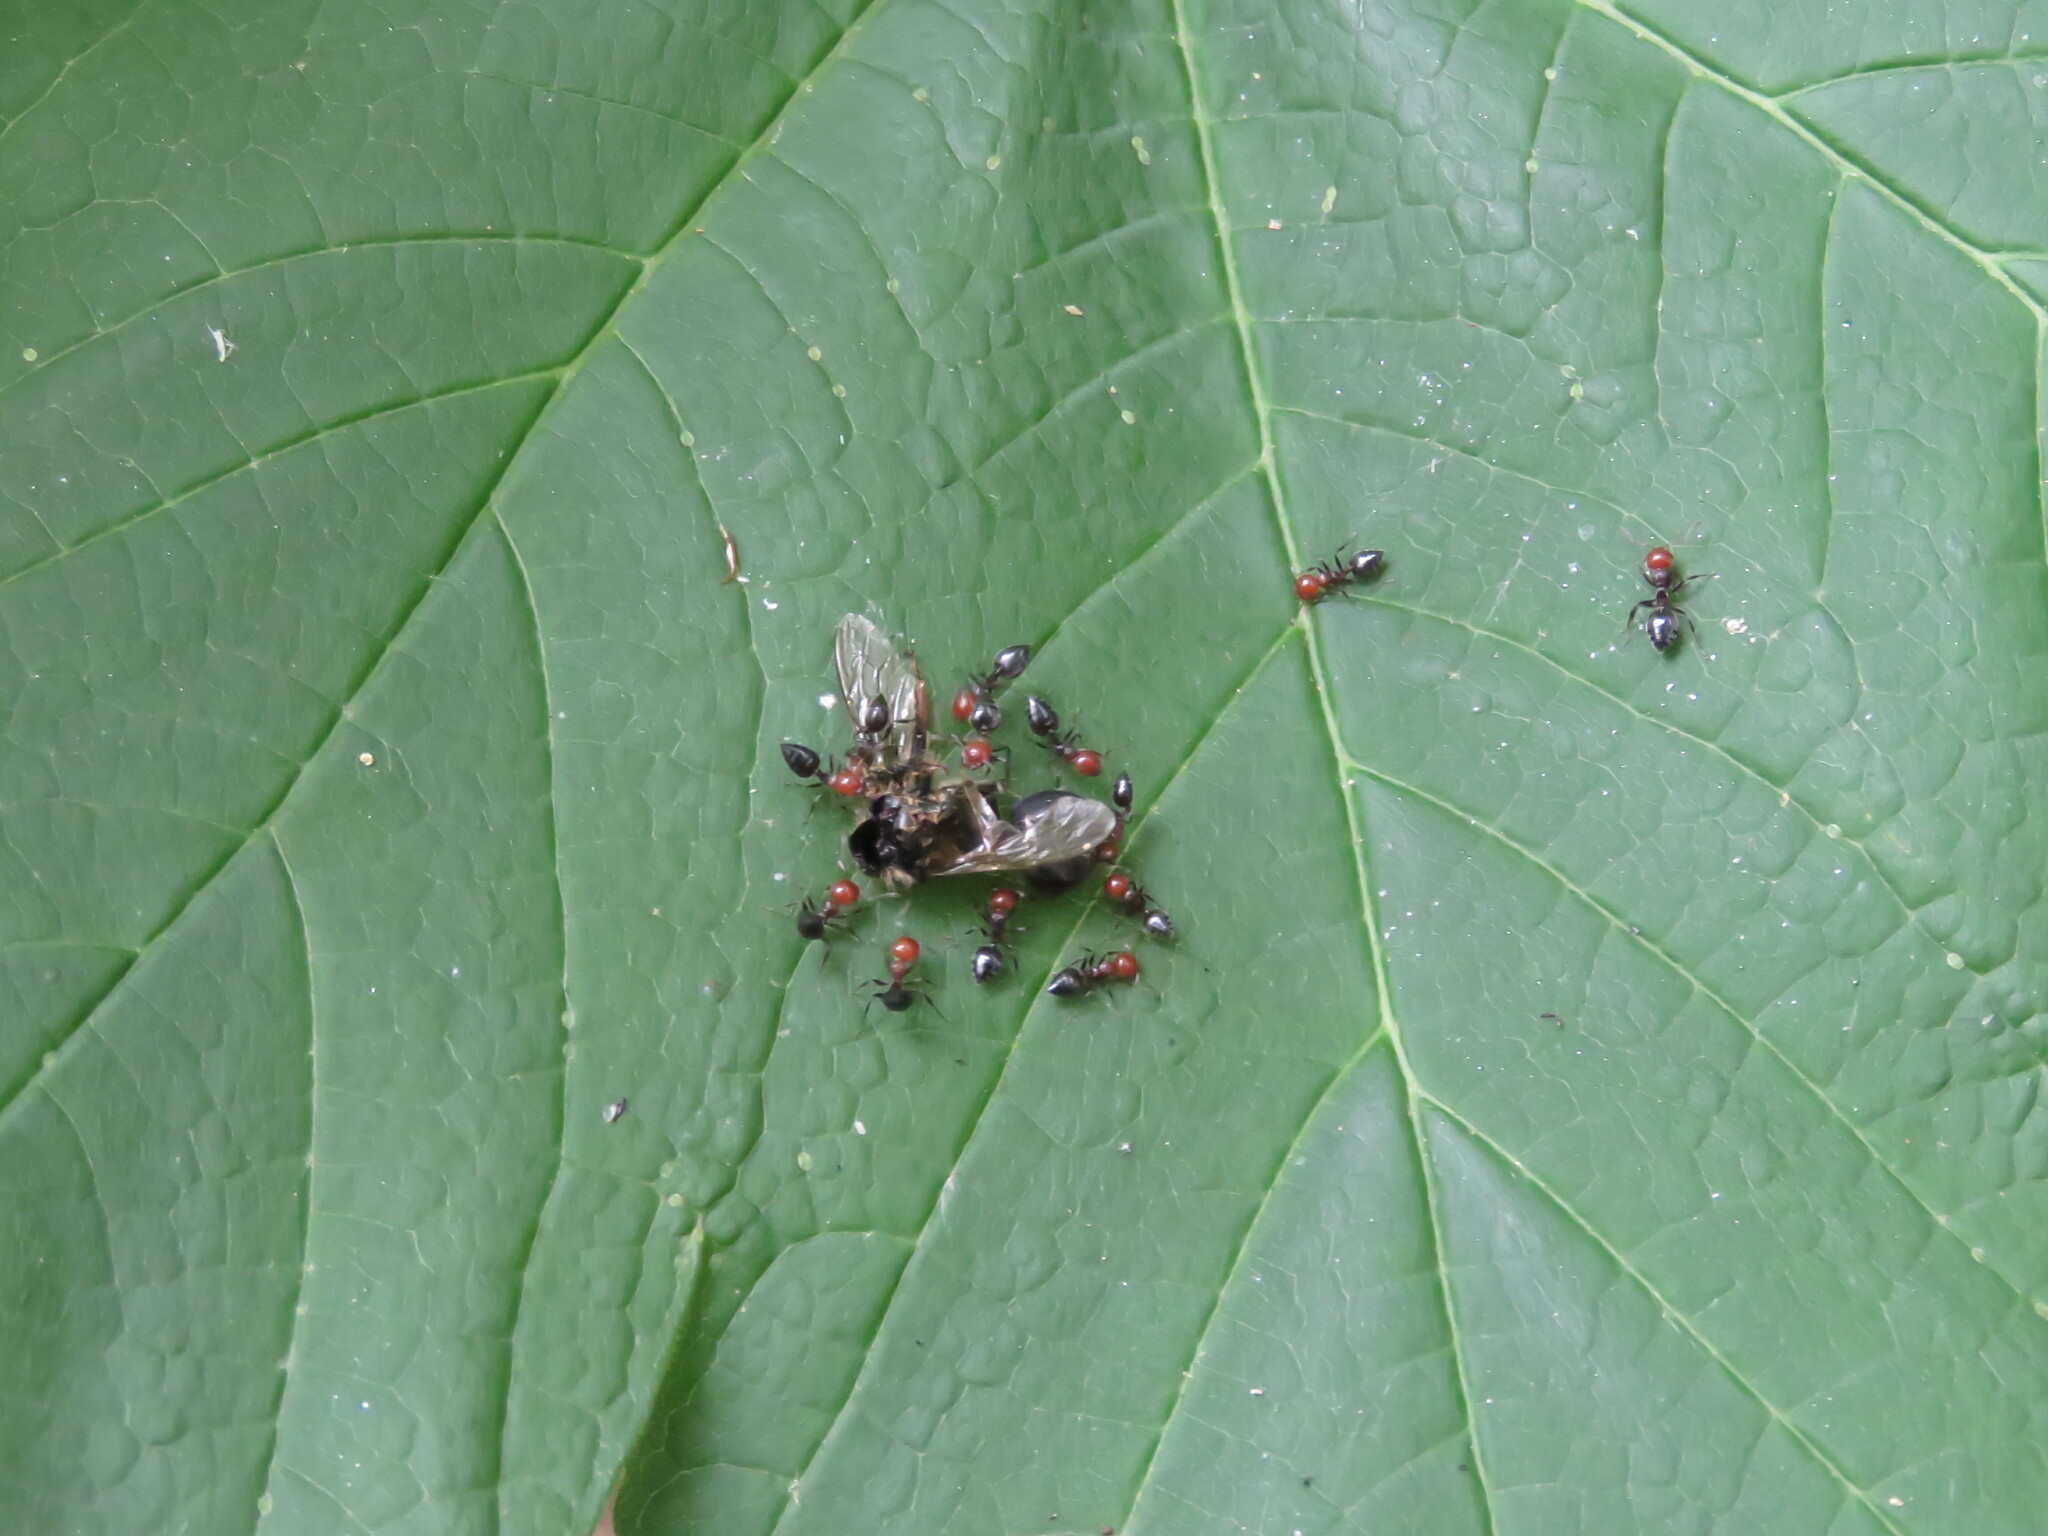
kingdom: Animalia
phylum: Arthropoda
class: Insecta
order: Hymenoptera
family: Formicidae
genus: Crematogaster
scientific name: Crematogaster scutellaris
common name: Fourmi du liège
